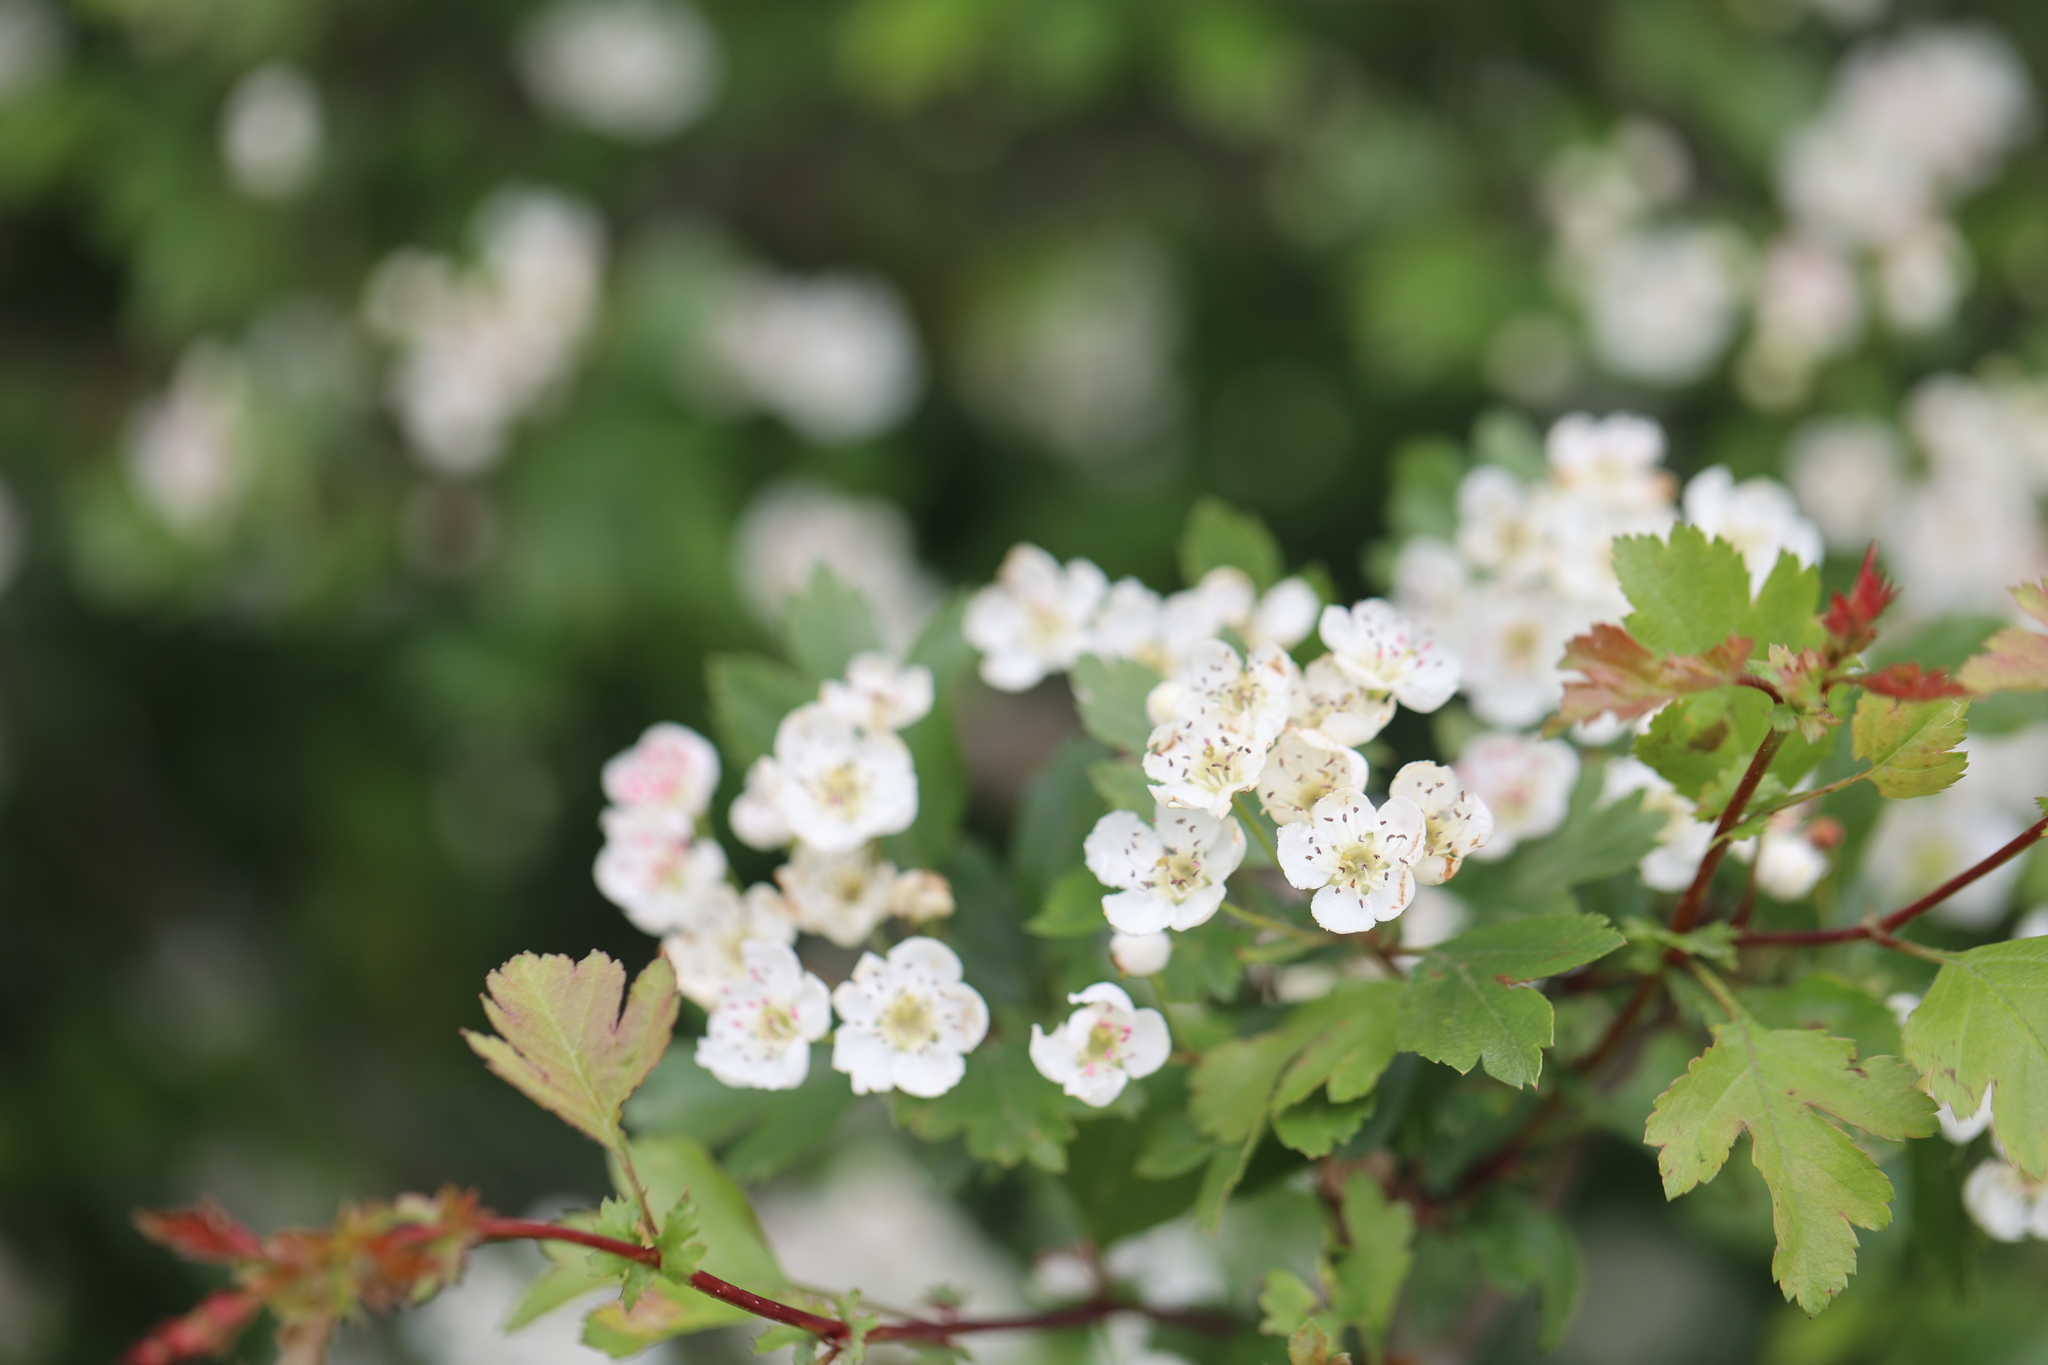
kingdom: Plantae
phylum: Tracheophyta
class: Magnoliopsida
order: Rosales
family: Rosaceae
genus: Crataegus
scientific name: Crataegus monogyna
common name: Hawthorn
